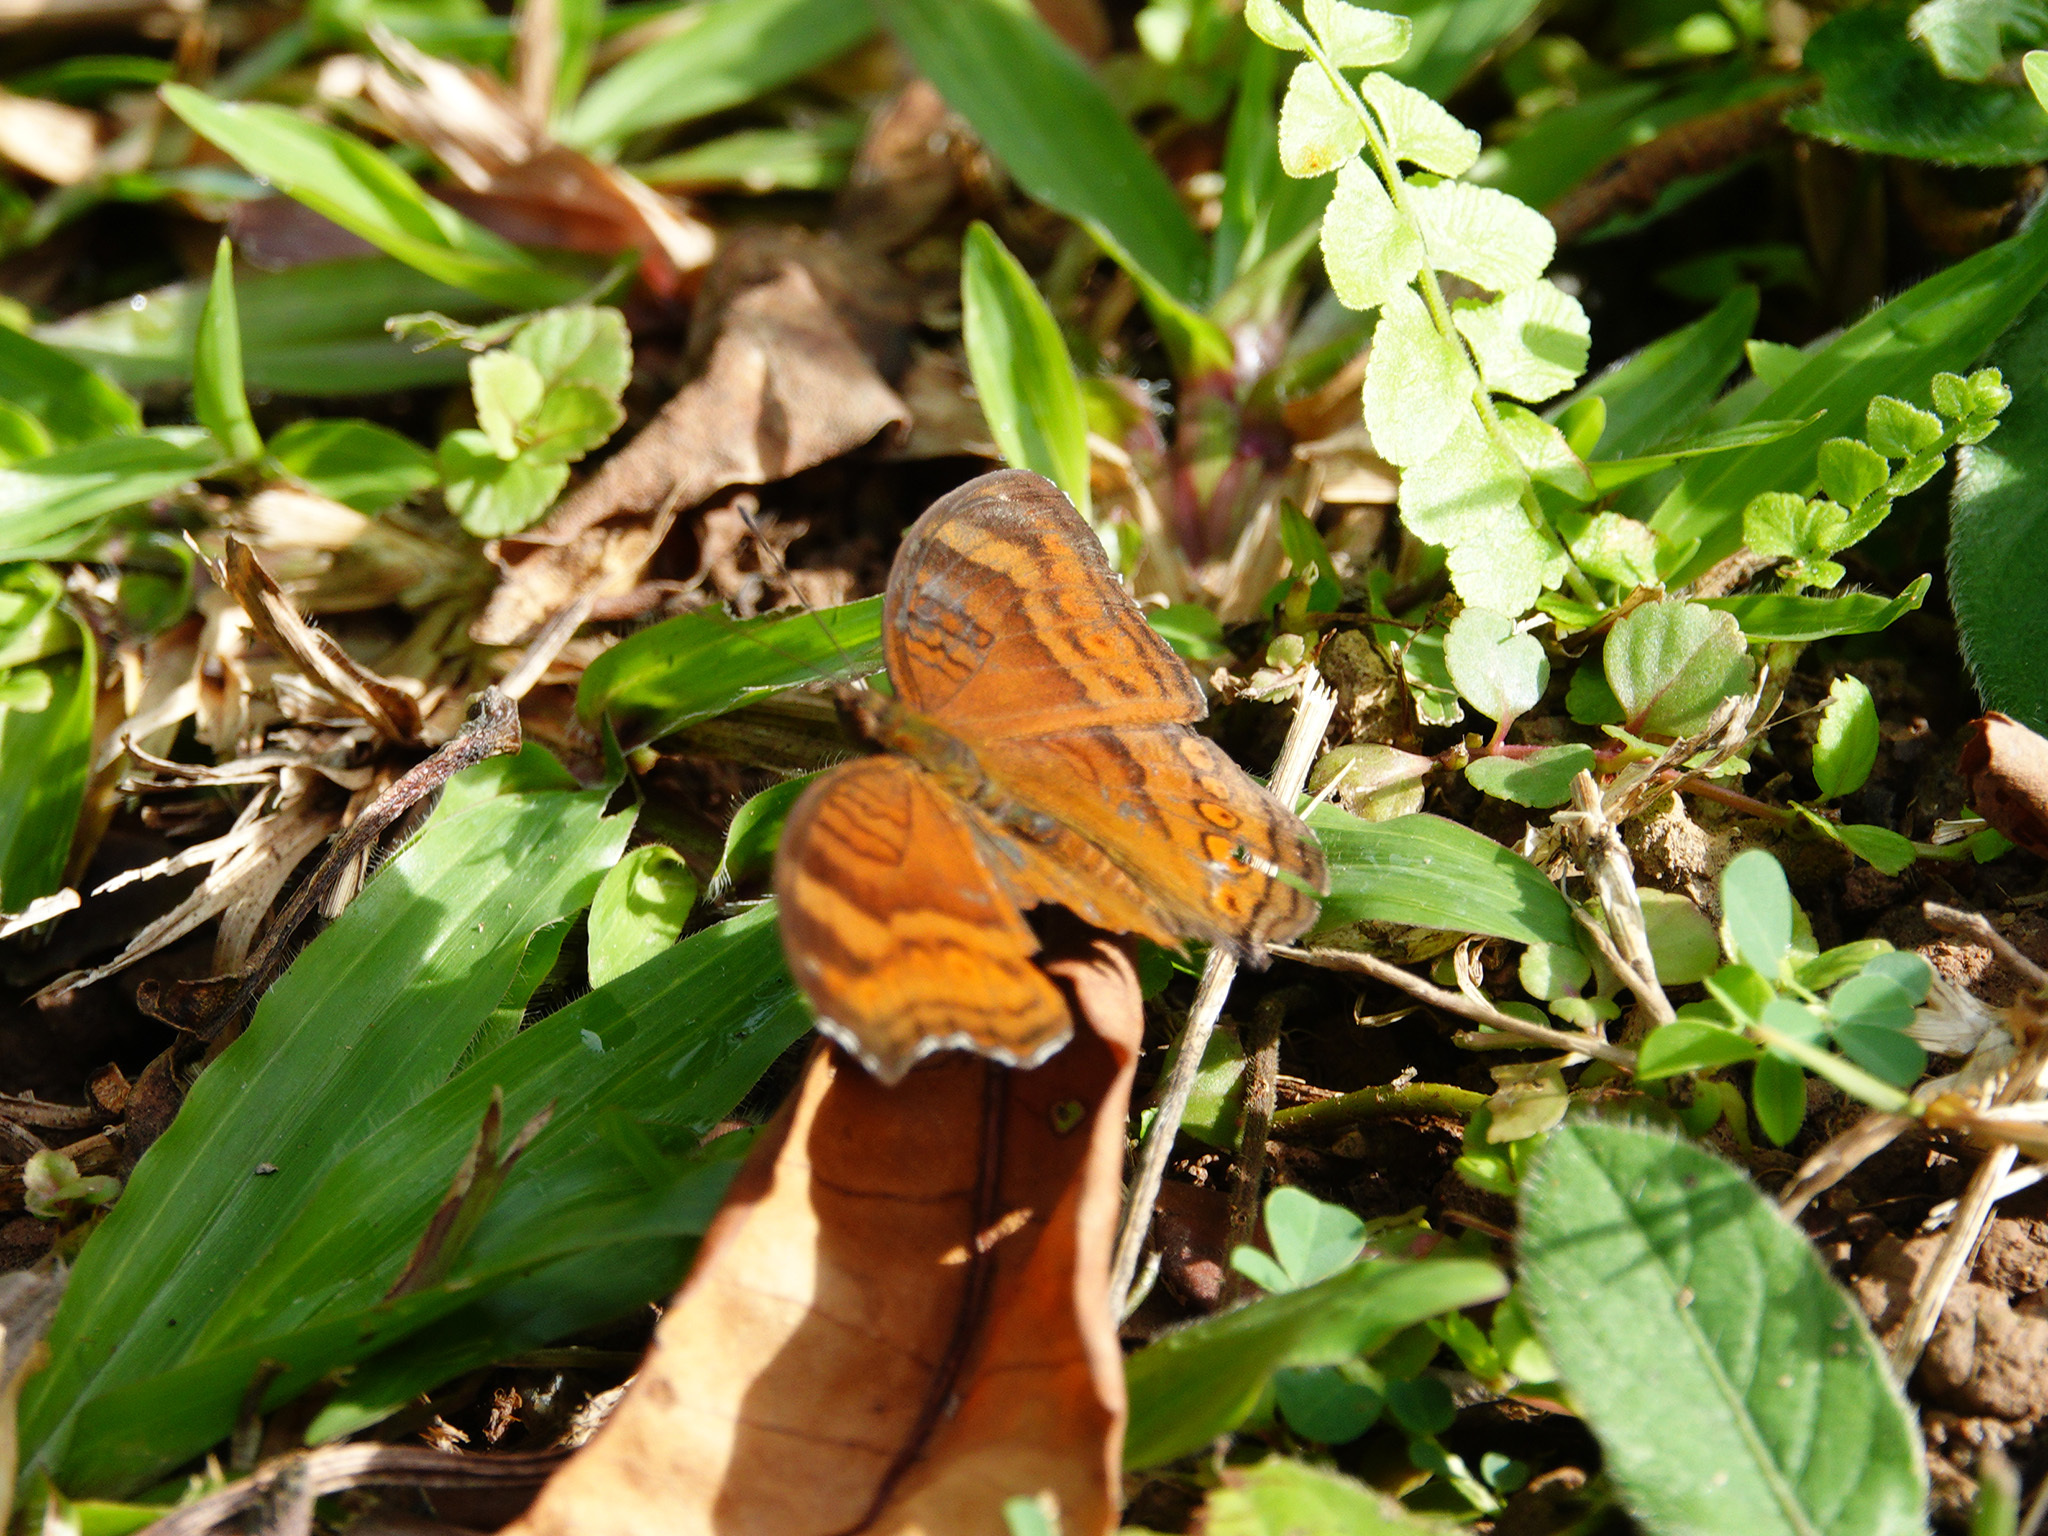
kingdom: Animalia
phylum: Arthropoda
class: Insecta
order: Lepidoptera
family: Nymphalidae
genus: Junonia
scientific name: Junonia hedonia
